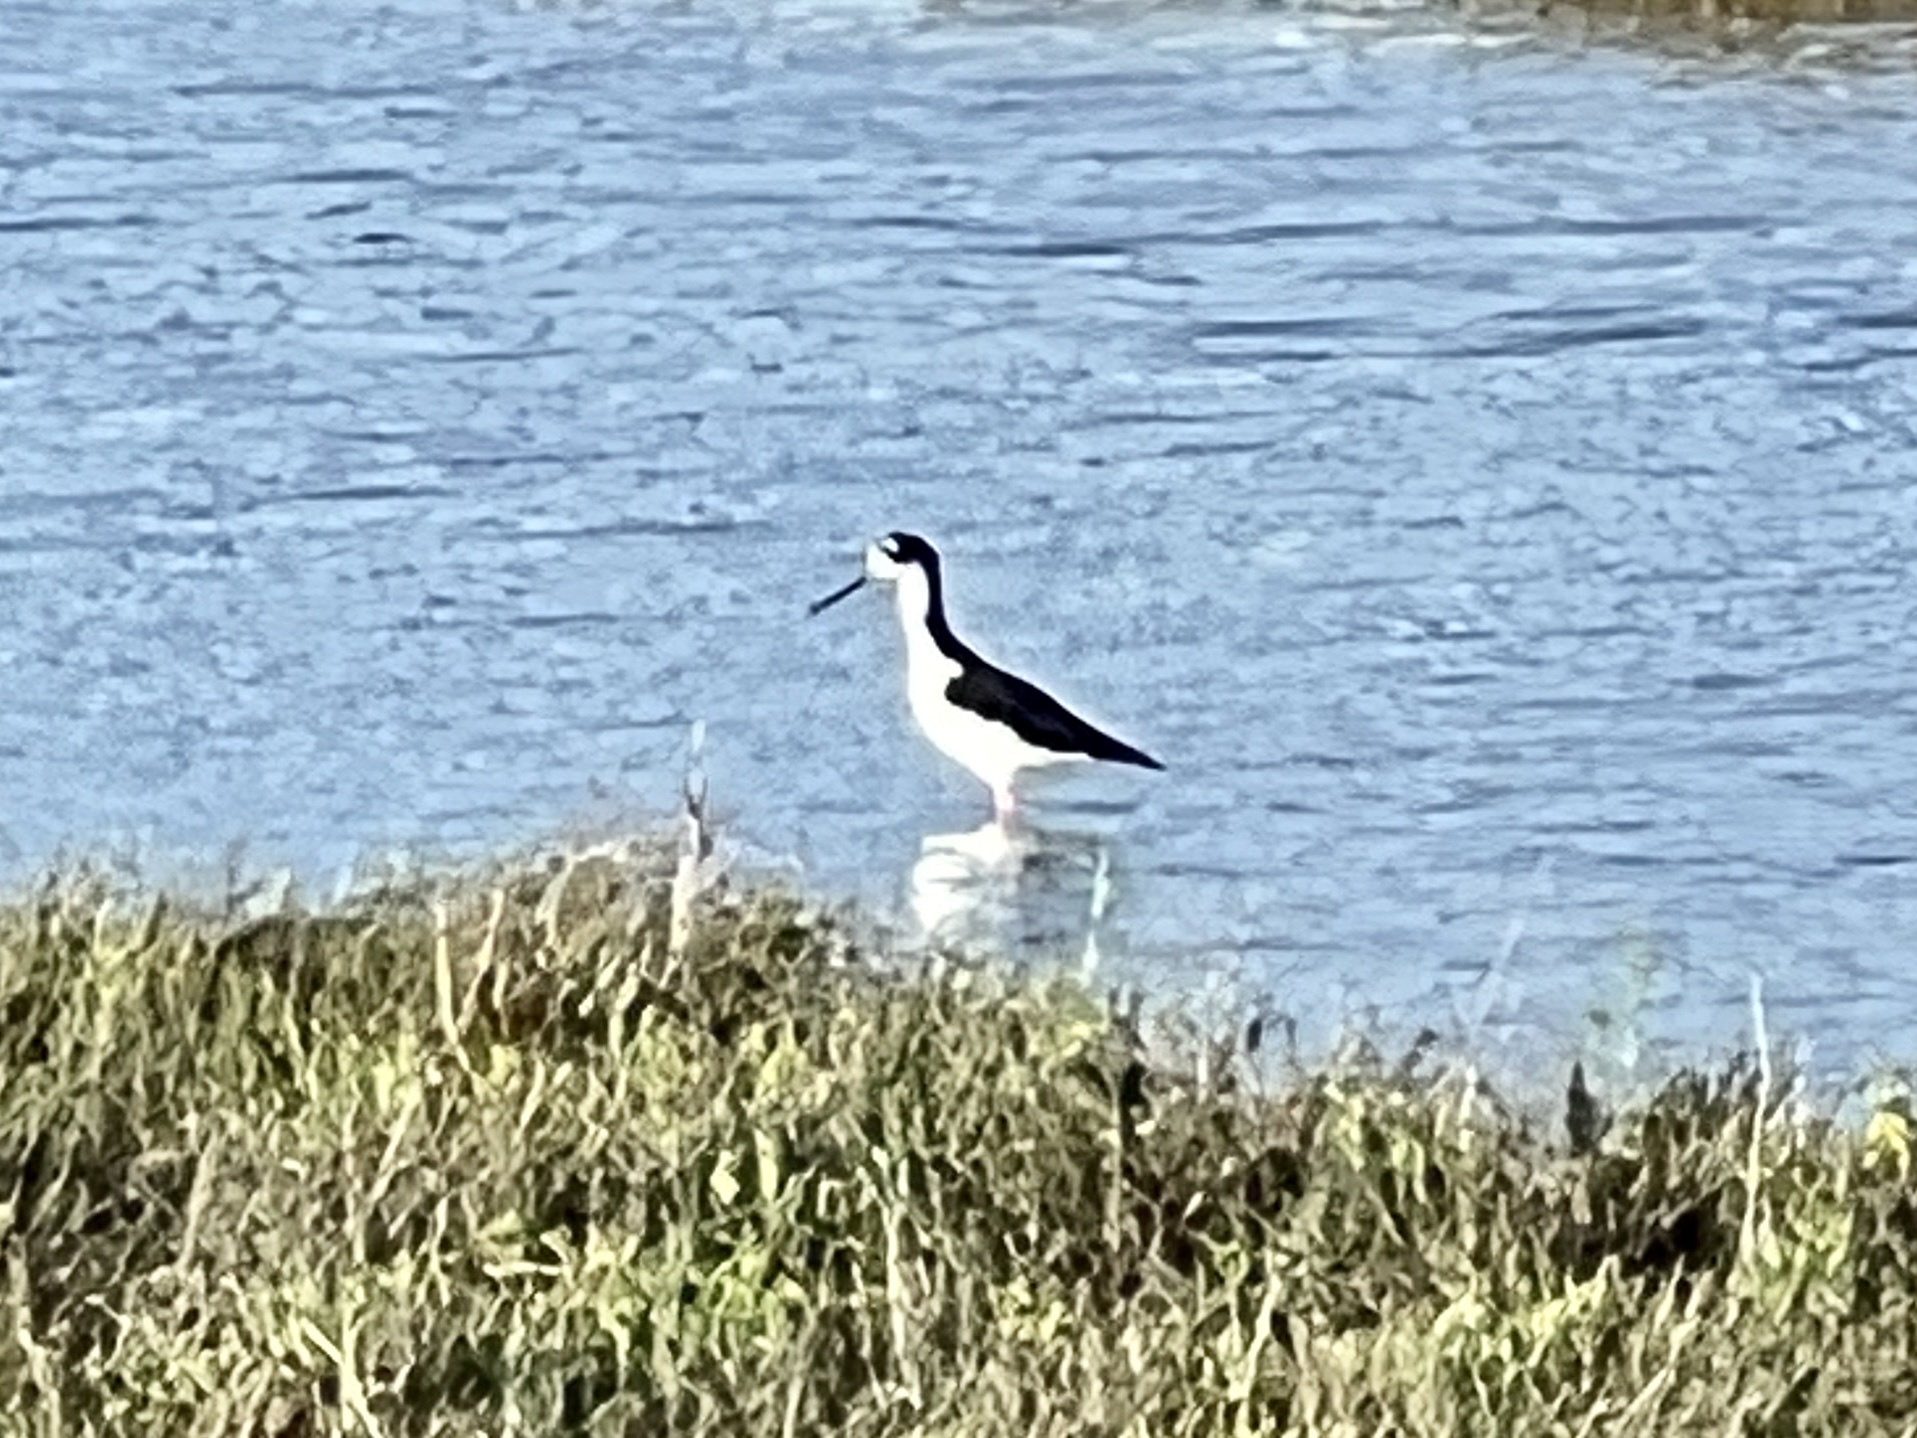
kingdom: Animalia
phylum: Chordata
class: Aves
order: Charadriiformes
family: Recurvirostridae
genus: Himantopus
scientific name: Himantopus mexicanus
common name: Black-necked stilt
